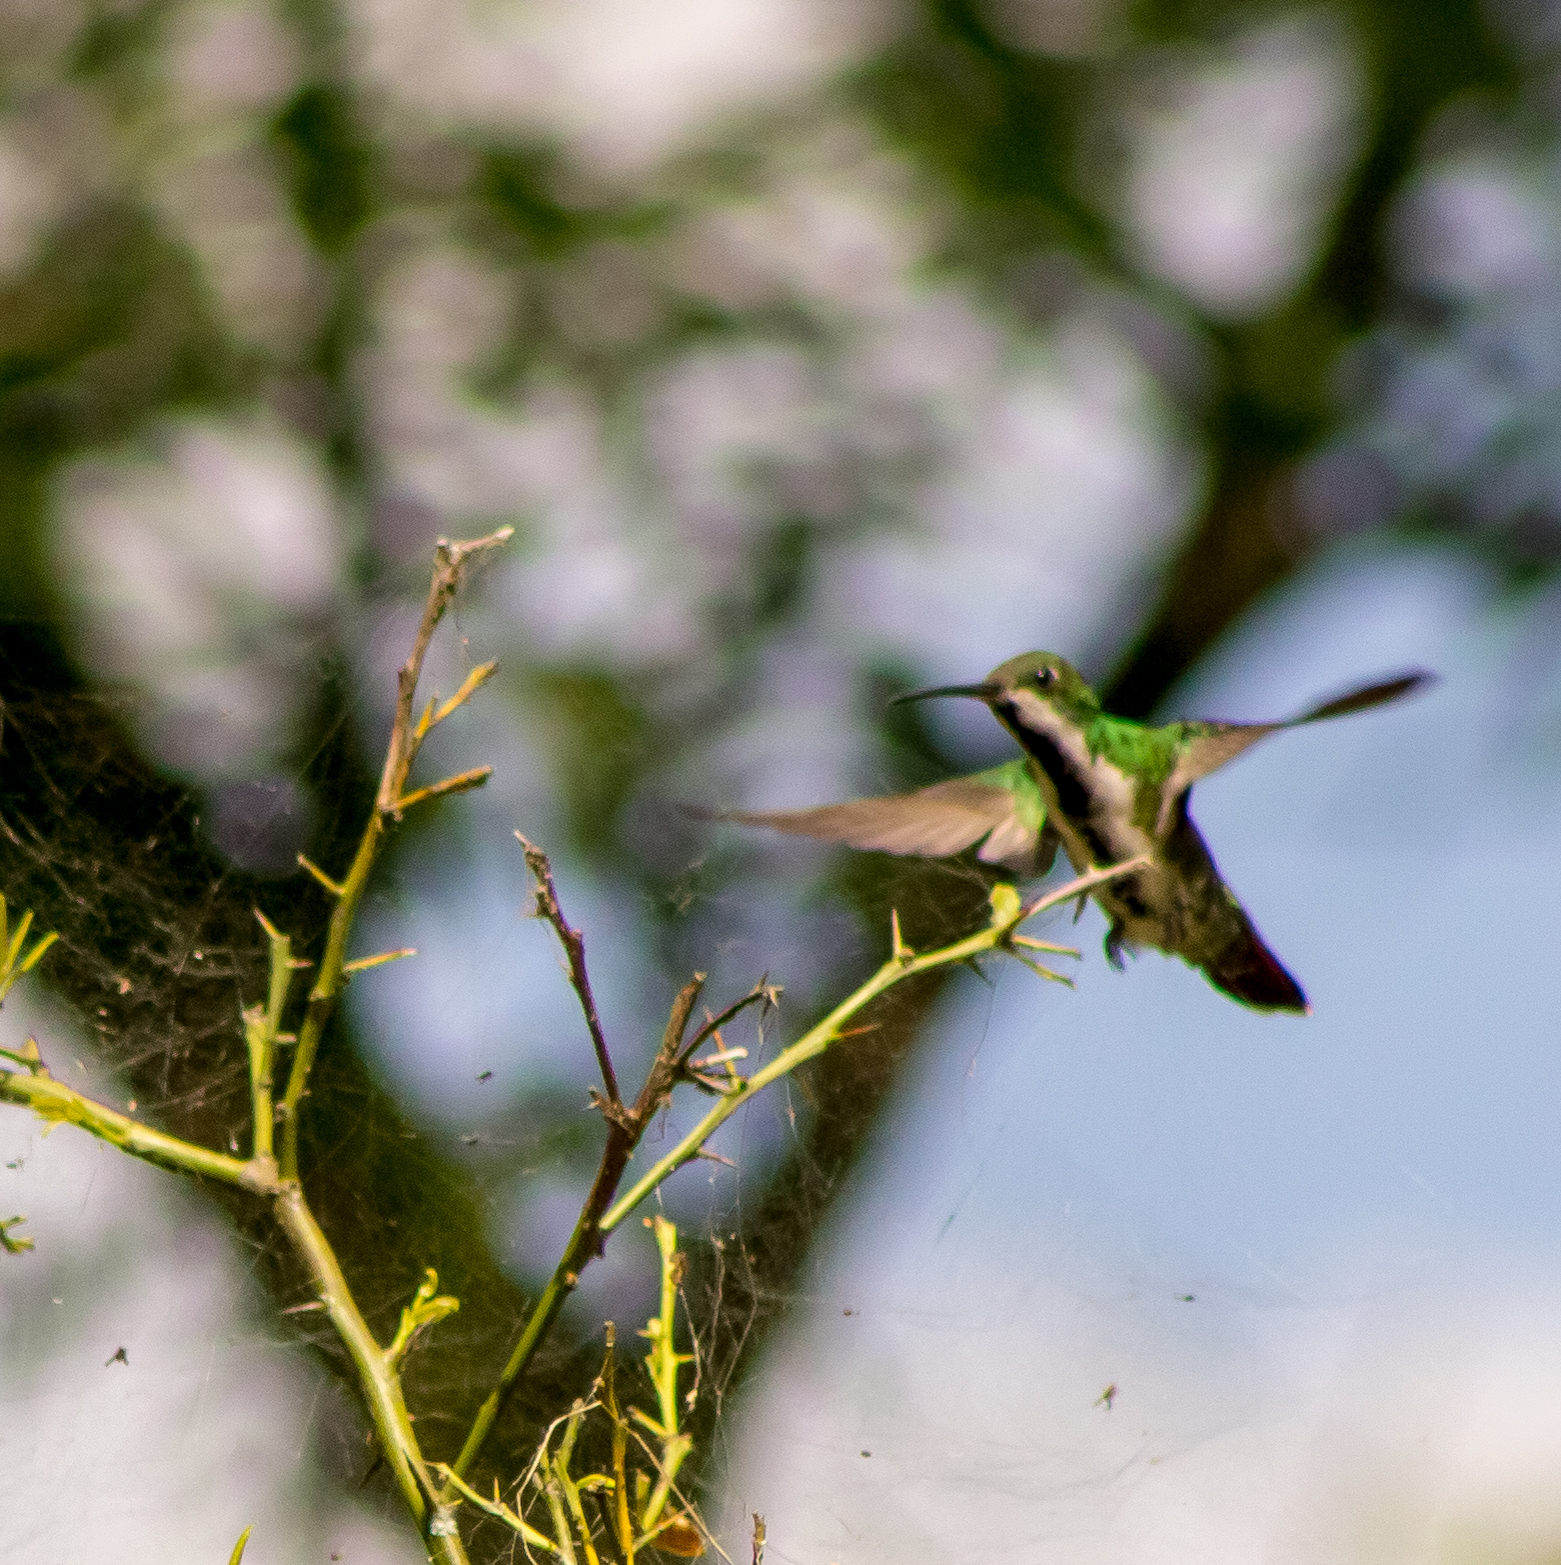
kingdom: Animalia
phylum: Chordata
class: Aves
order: Apodiformes
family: Trochilidae
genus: Anthracothorax
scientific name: Anthracothorax nigricollis
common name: Black-throated mango
